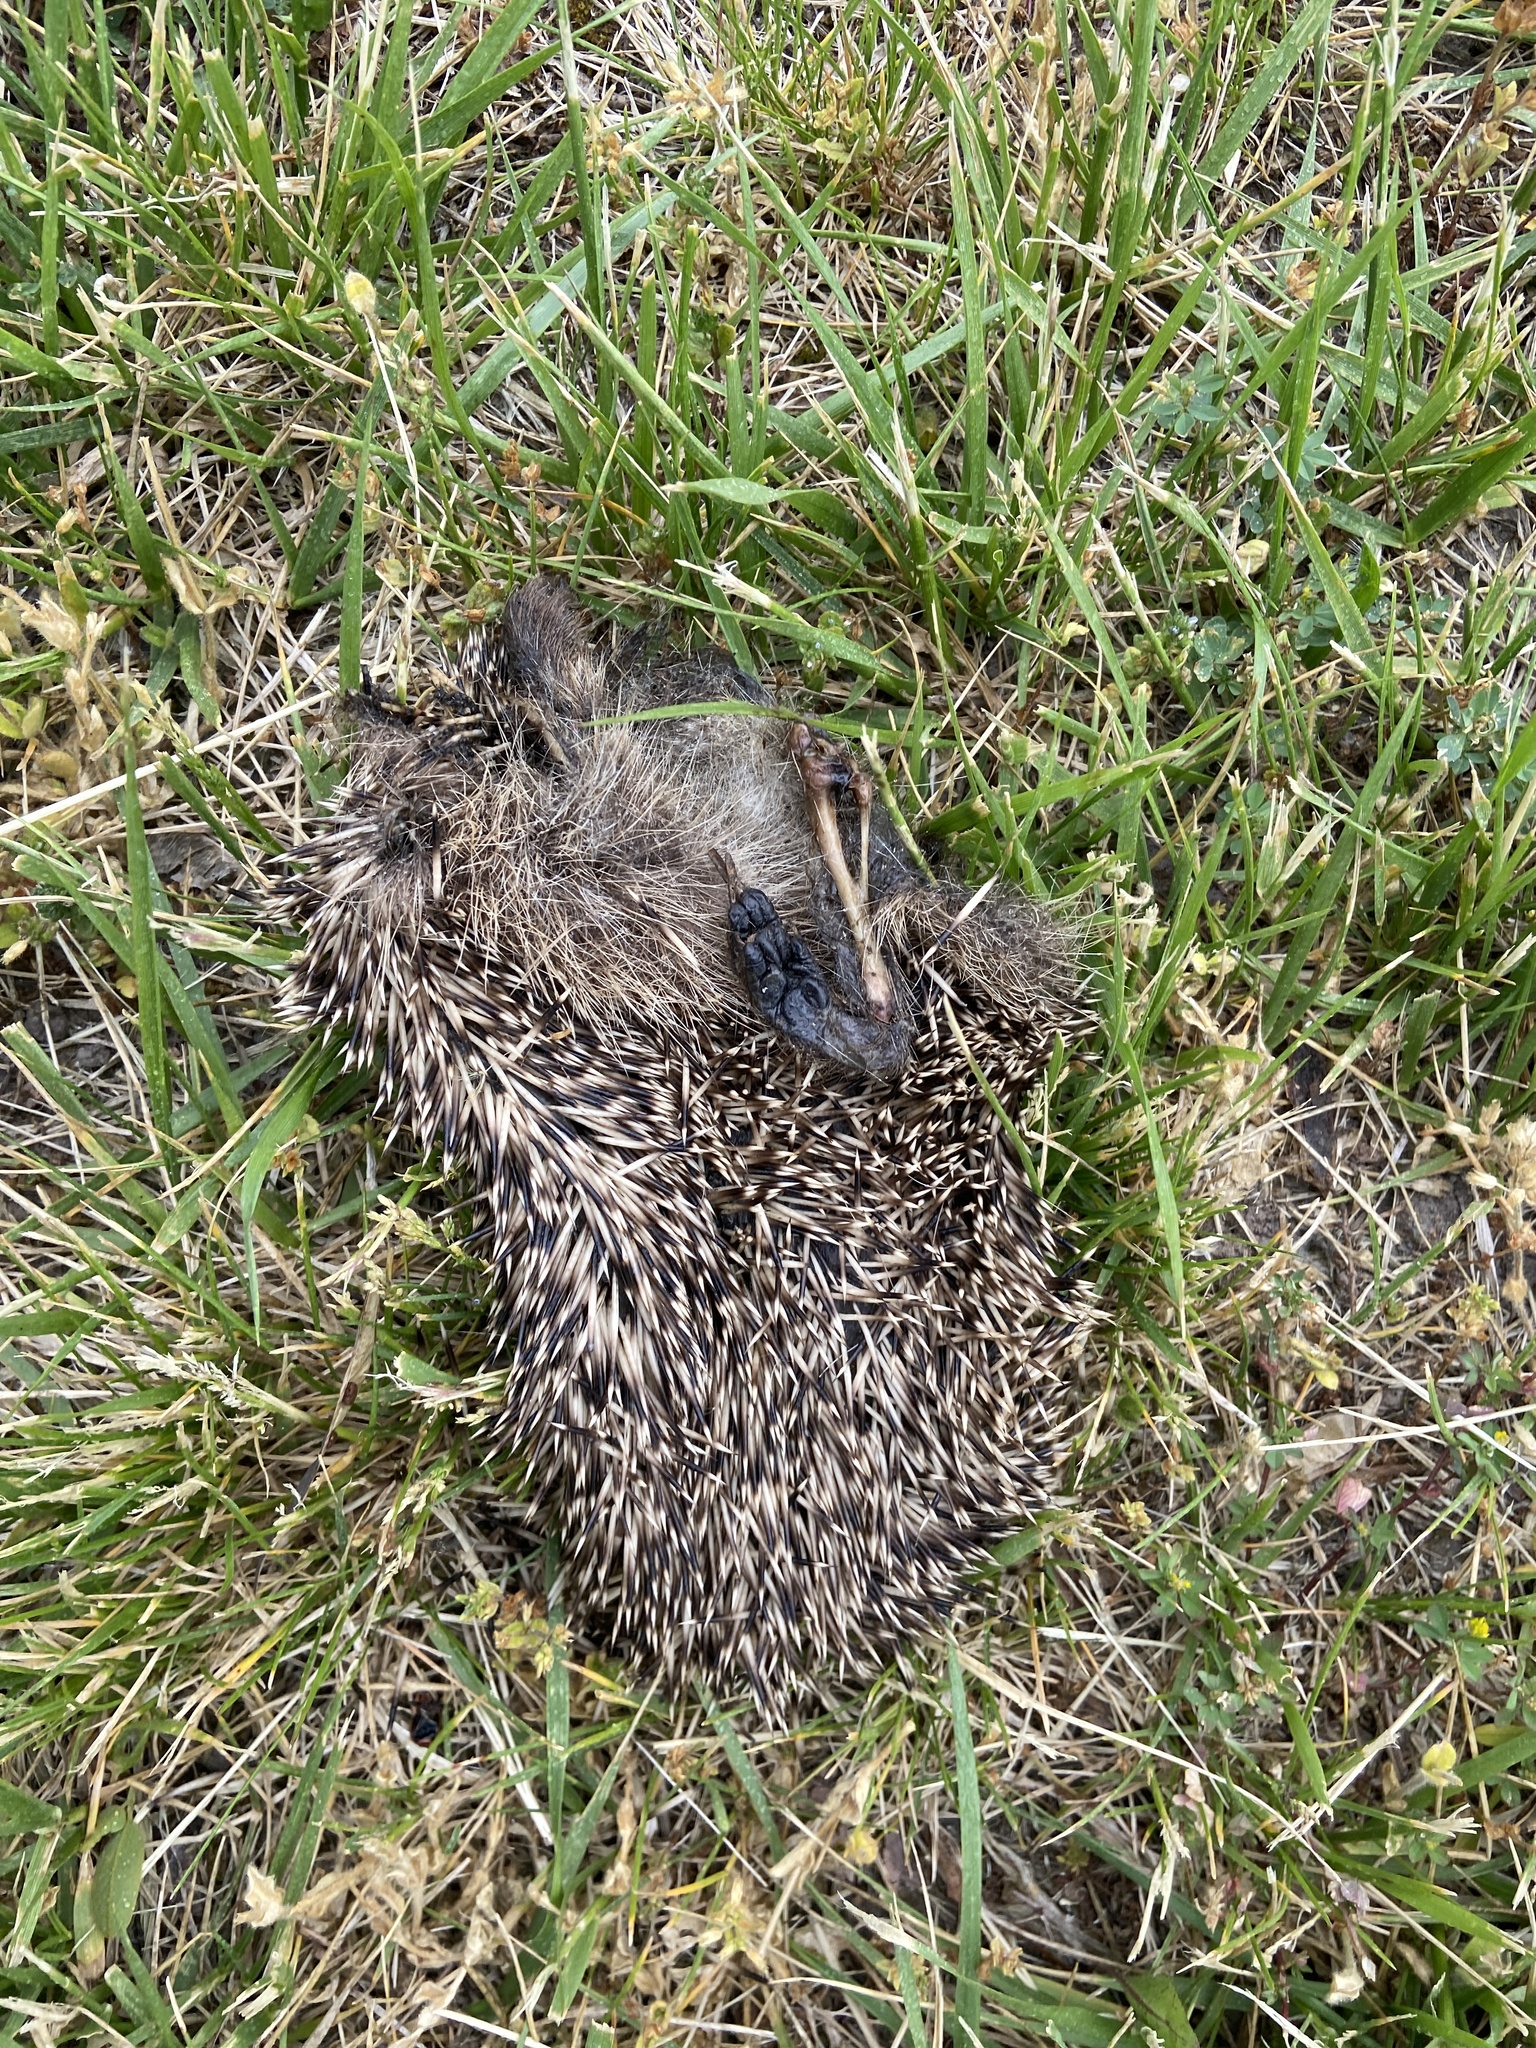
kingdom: Animalia
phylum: Chordata
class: Mammalia
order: Erinaceomorpha
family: Erinaceidae
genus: Erinaceus
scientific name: Erinaceus europaeus
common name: West european hedgehog
